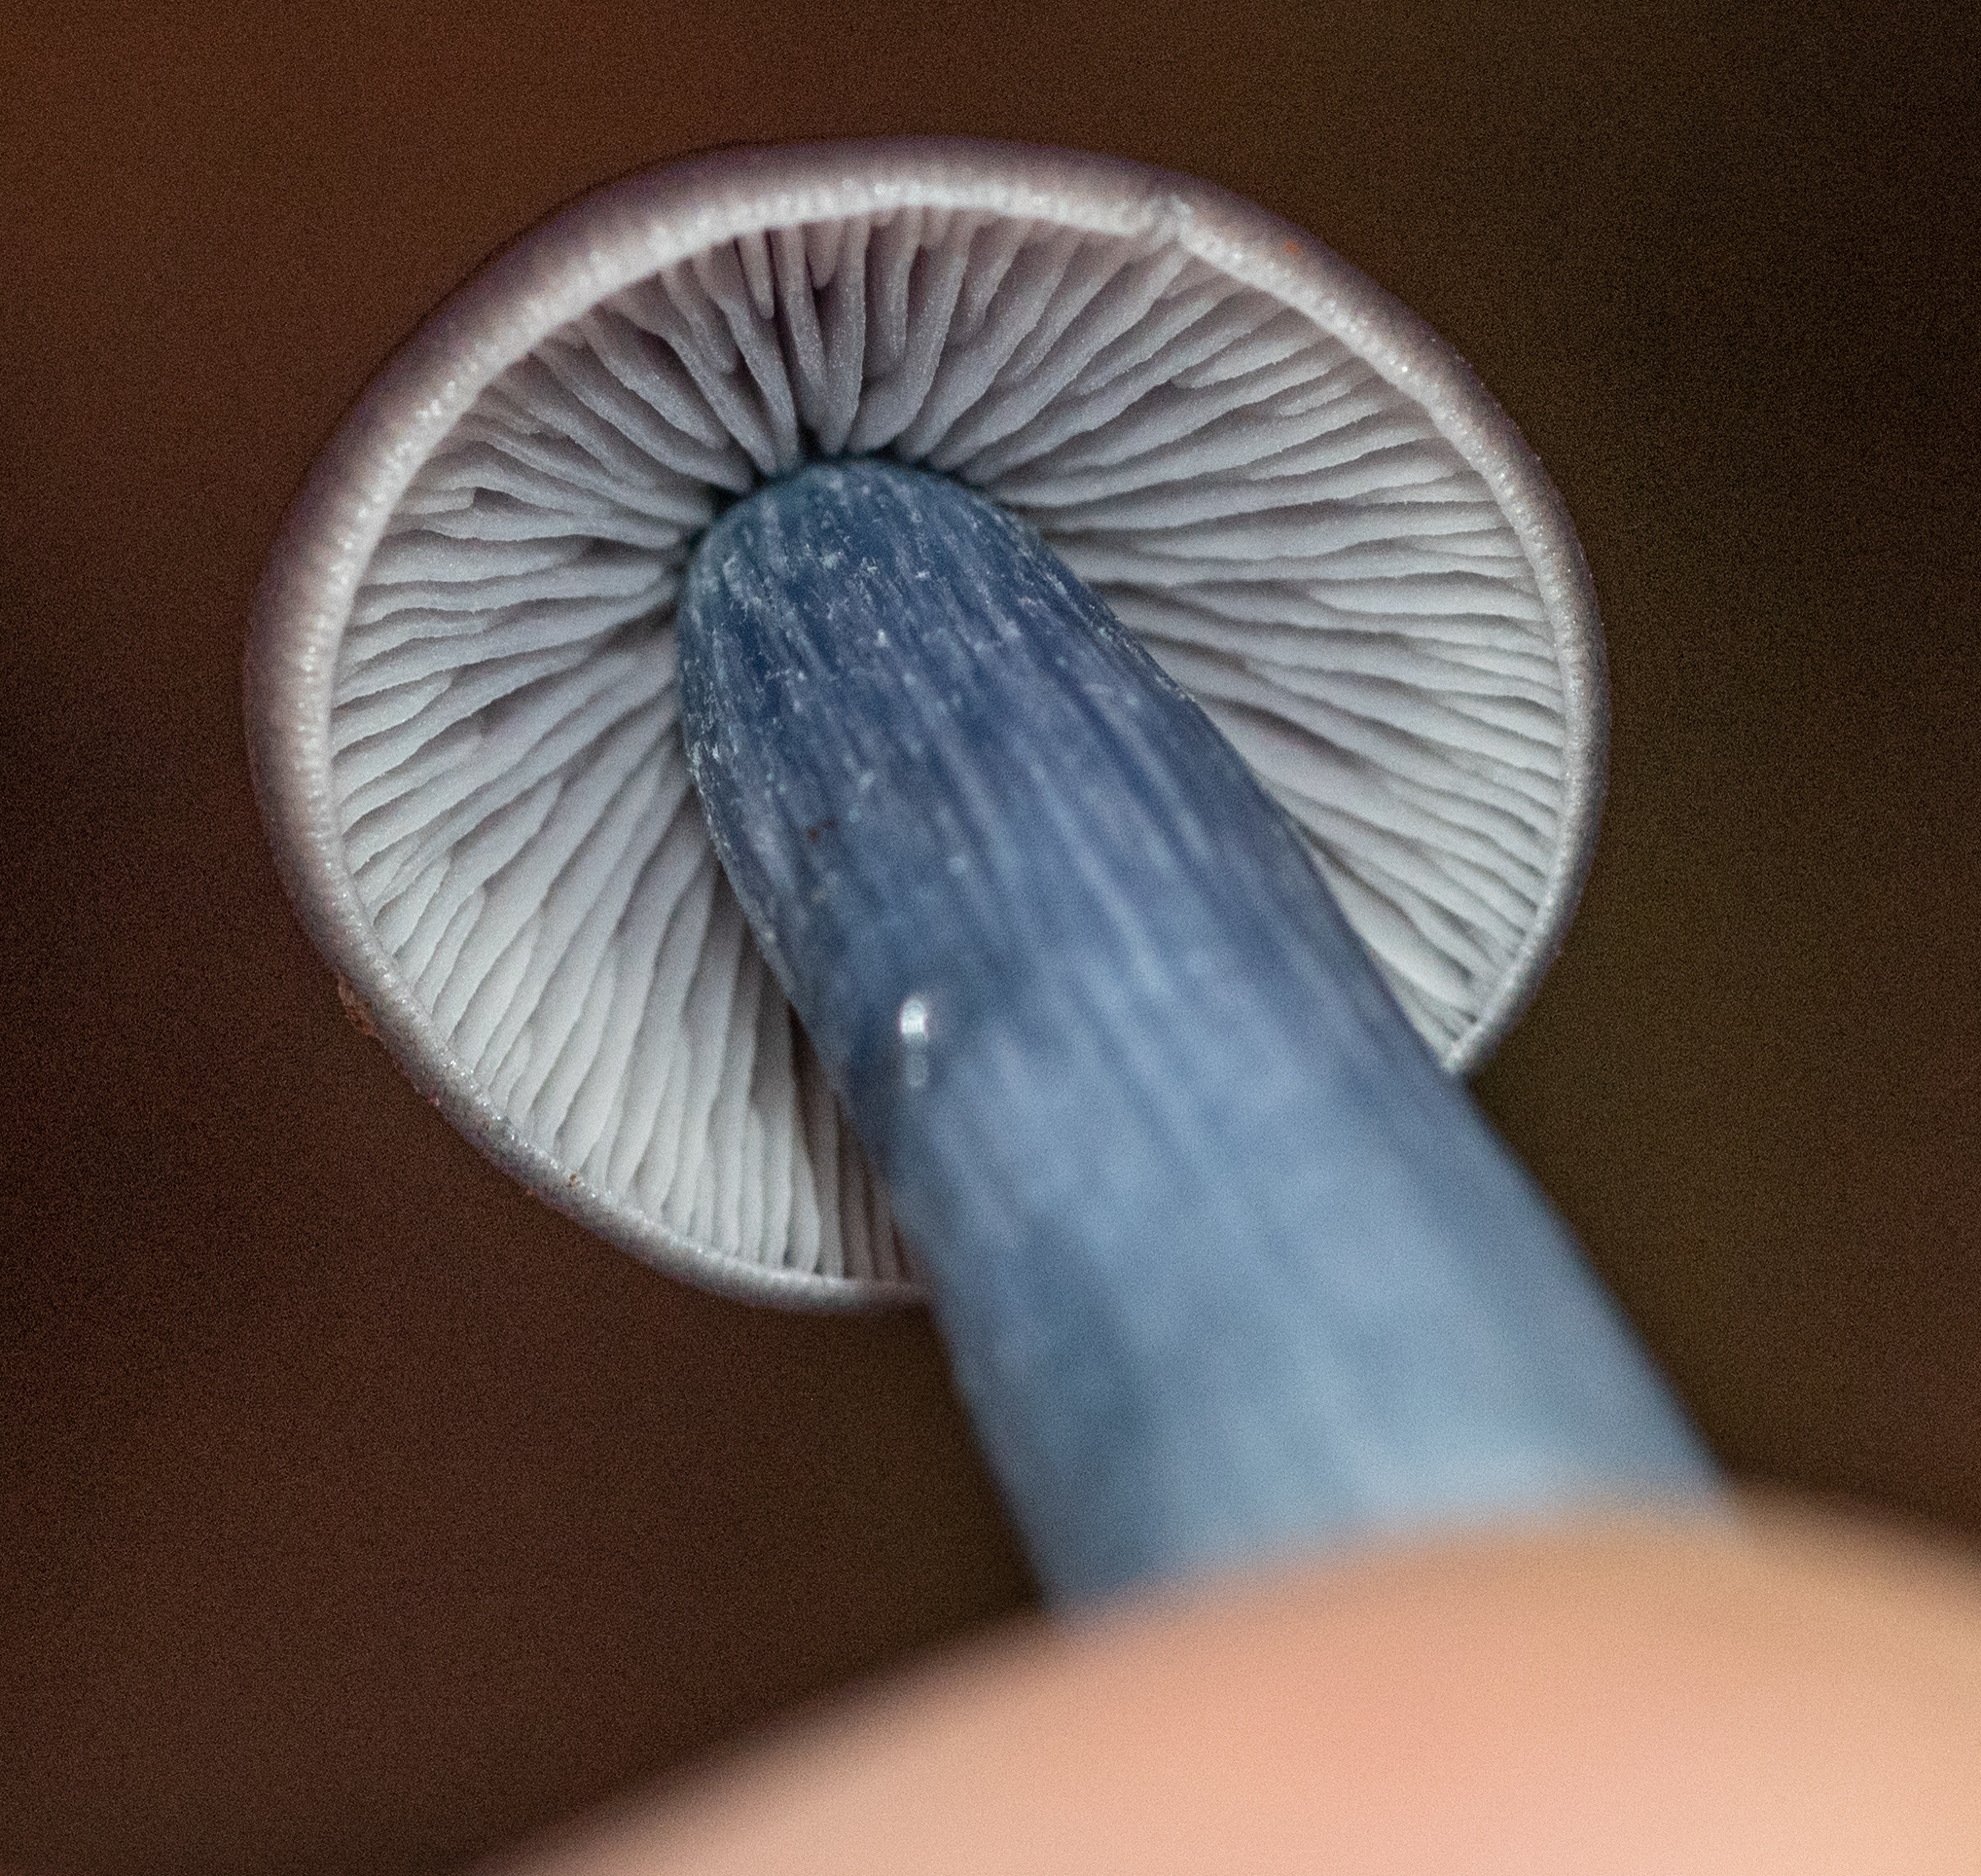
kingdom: Fungi
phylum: Basidiomycota
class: Agaricomycetes
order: Agaricales
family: Entolomataceae
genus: Entocybe
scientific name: Entocybe trachyospora
